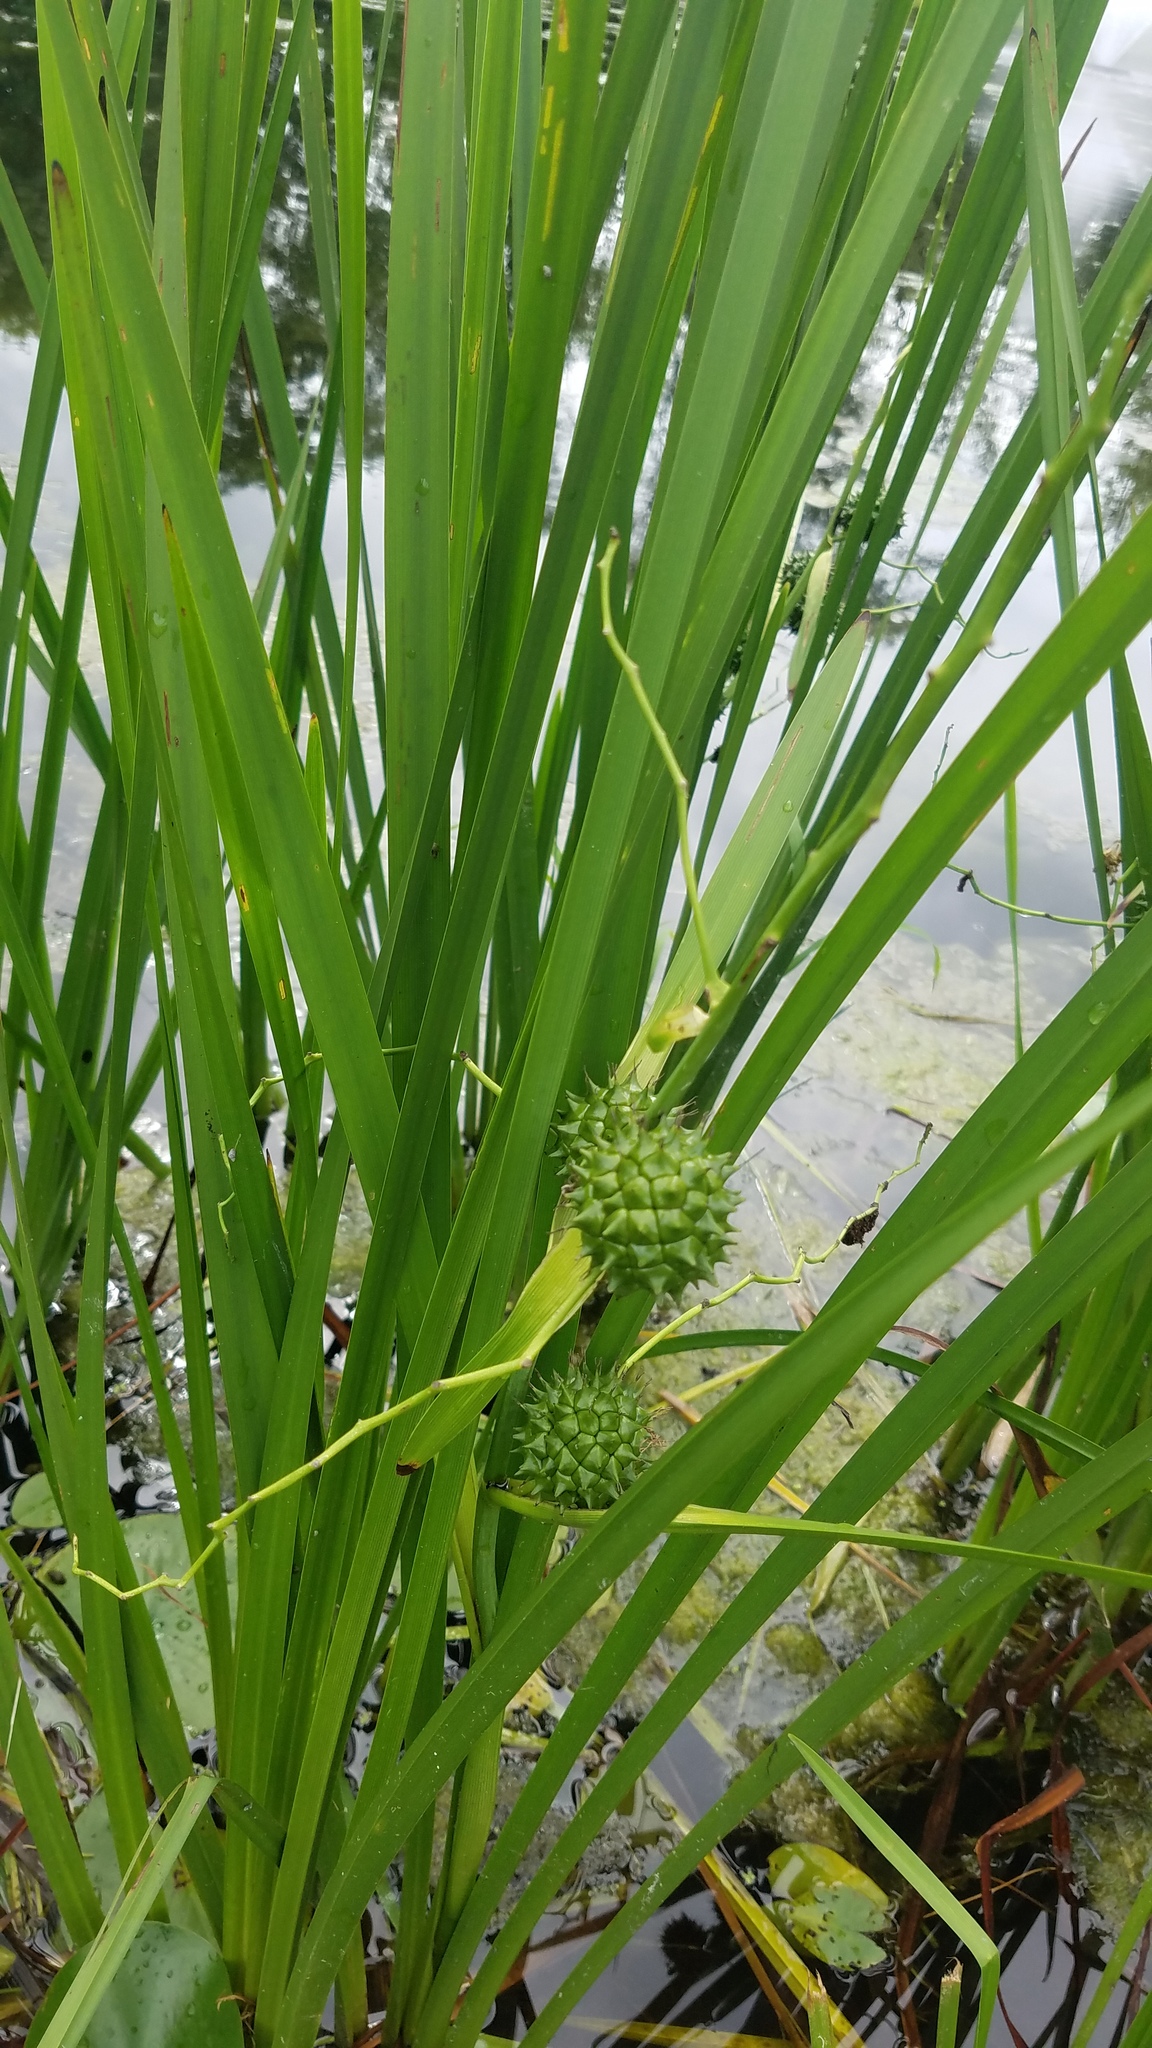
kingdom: Plantae
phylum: Tracheophyta
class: Liliopsida
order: Poales
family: Typhaceae
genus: Sparganium
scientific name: Sparganium eurycarpum
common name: Broad-fruited burreed
